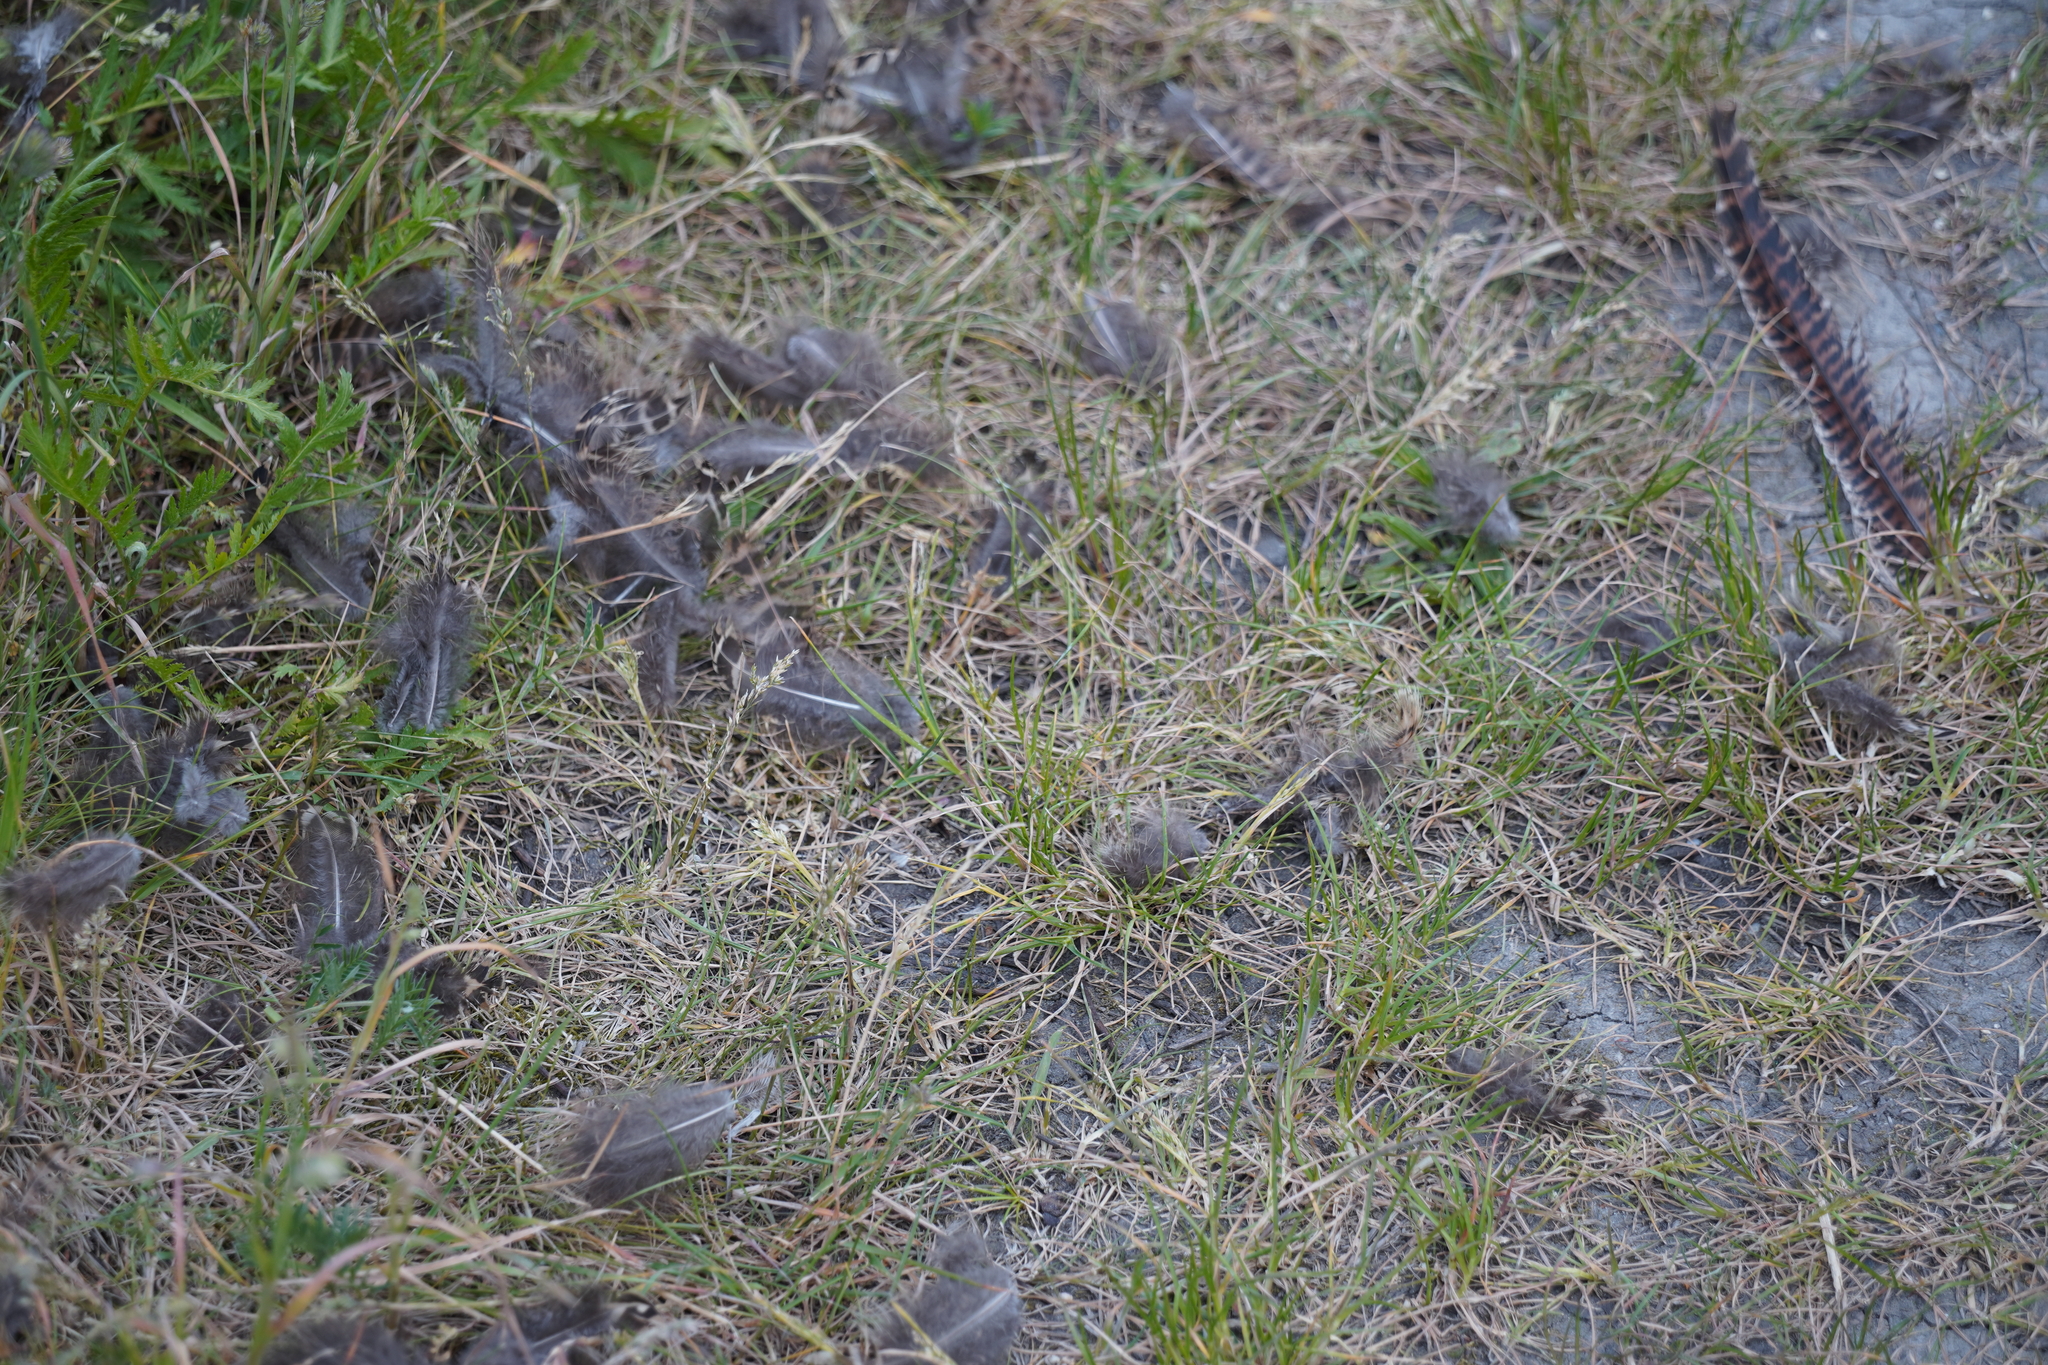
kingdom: Animalia
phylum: Chordata
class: Aves
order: Galliformes
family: Phasianidae
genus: Phasianus
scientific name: Phasianus colchicus
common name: Common pheasant
